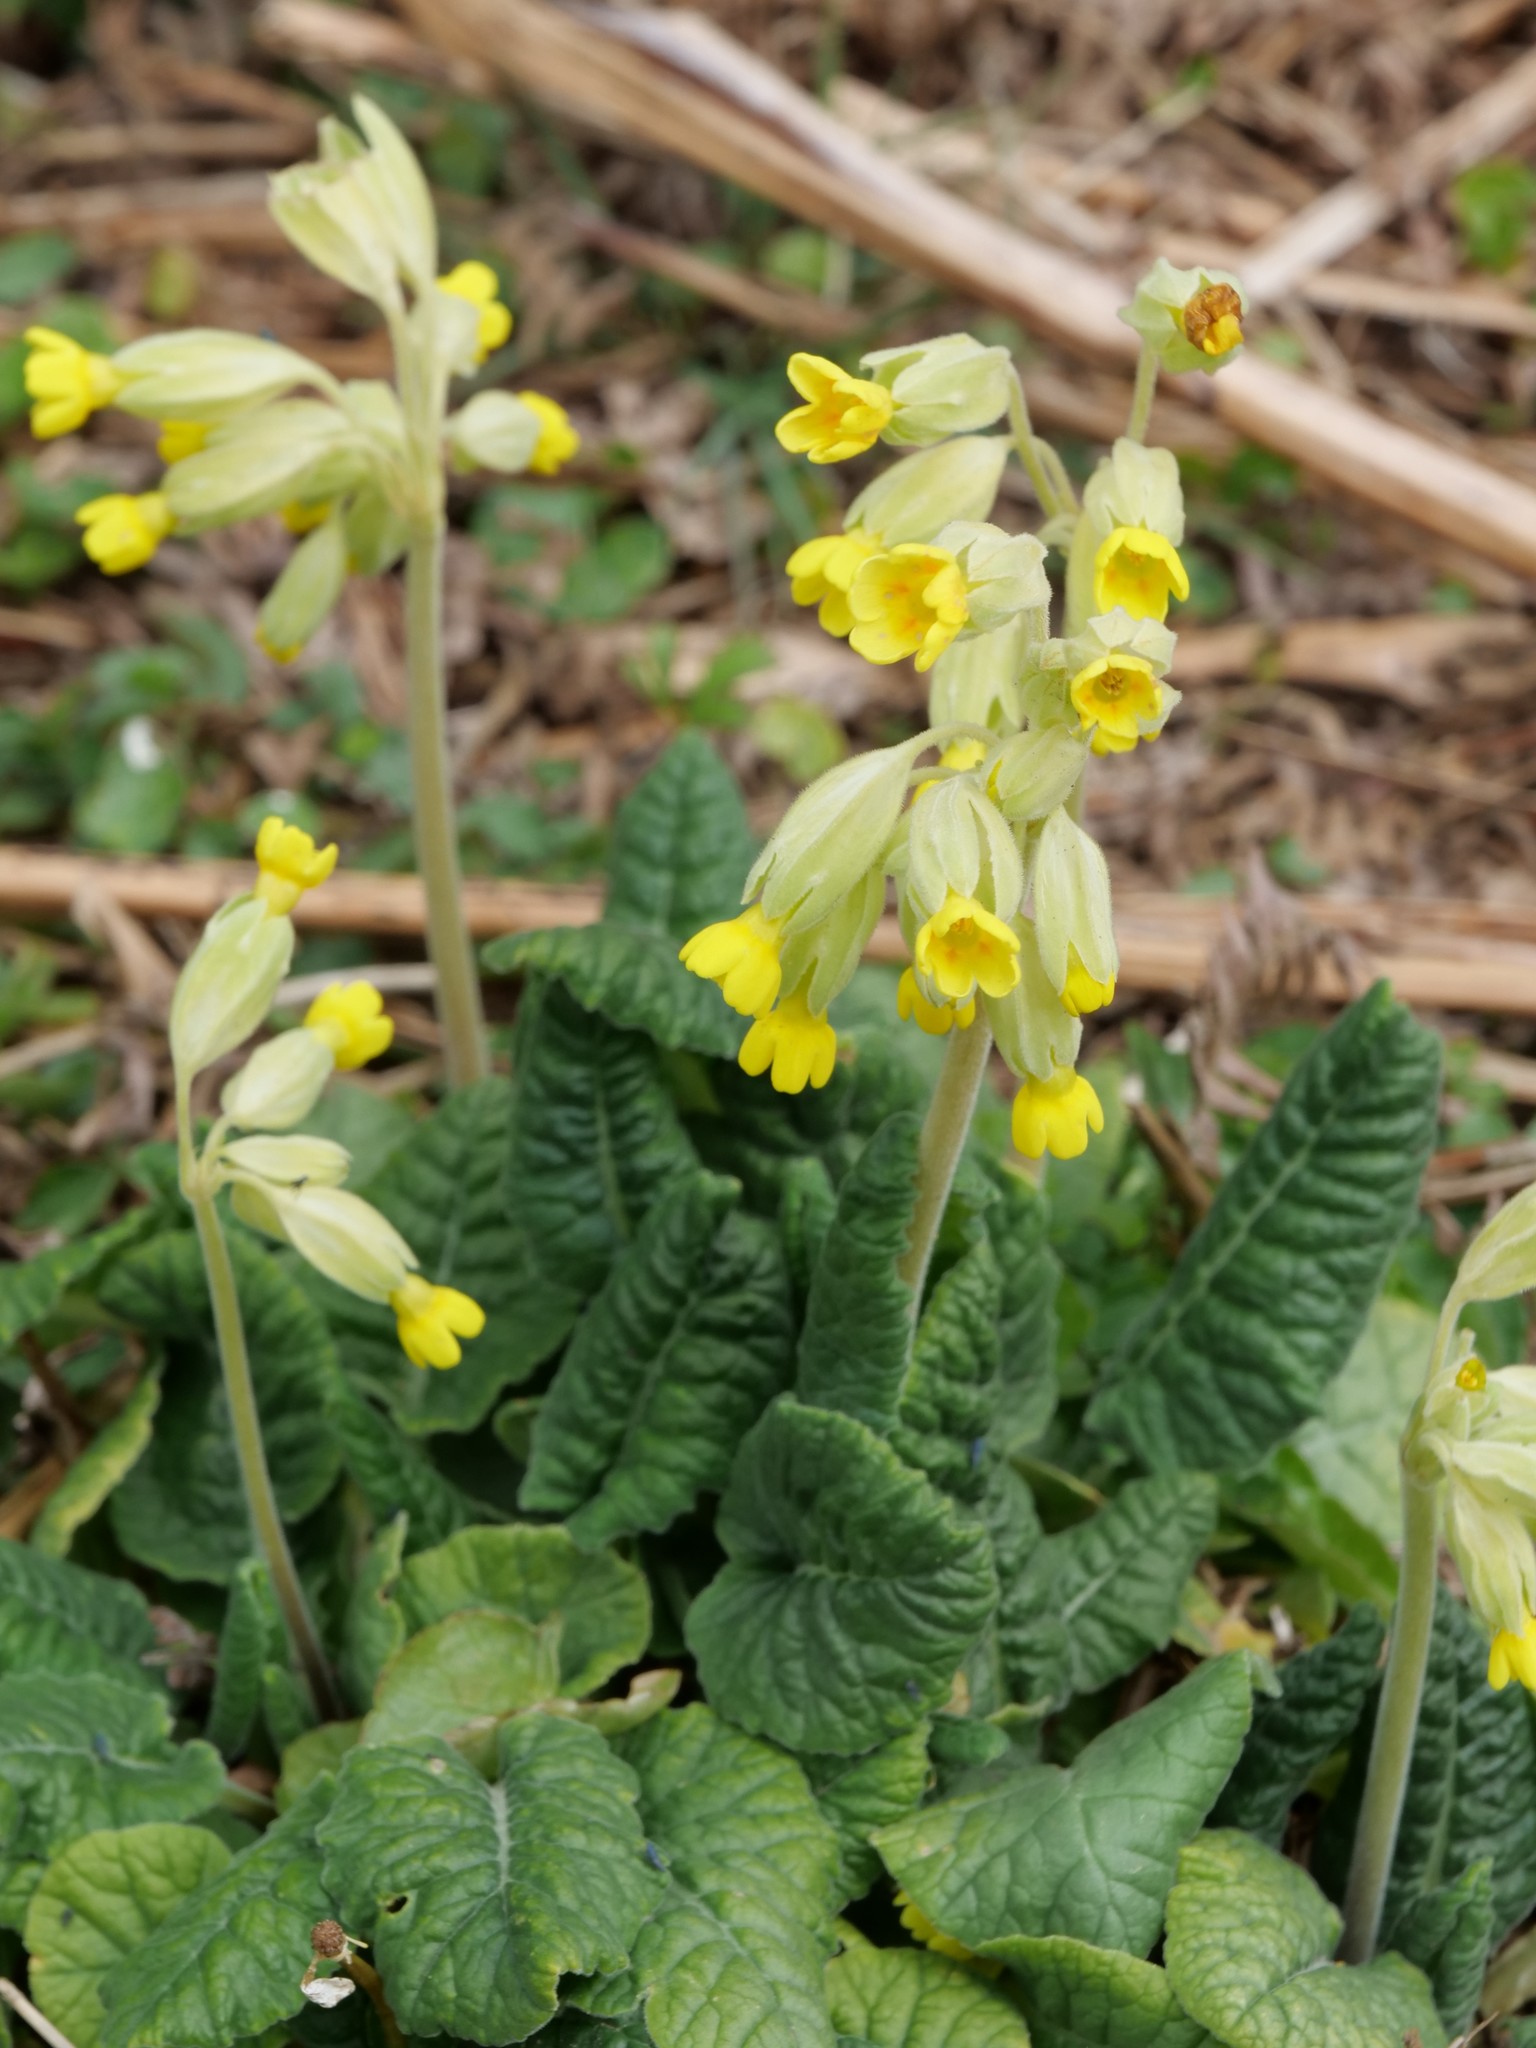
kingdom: Plantae
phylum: Tracheophyta
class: Magnoliopsida
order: Ericales
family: Primulaceae
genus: Primula
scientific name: Primula veris
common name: Cowslip
